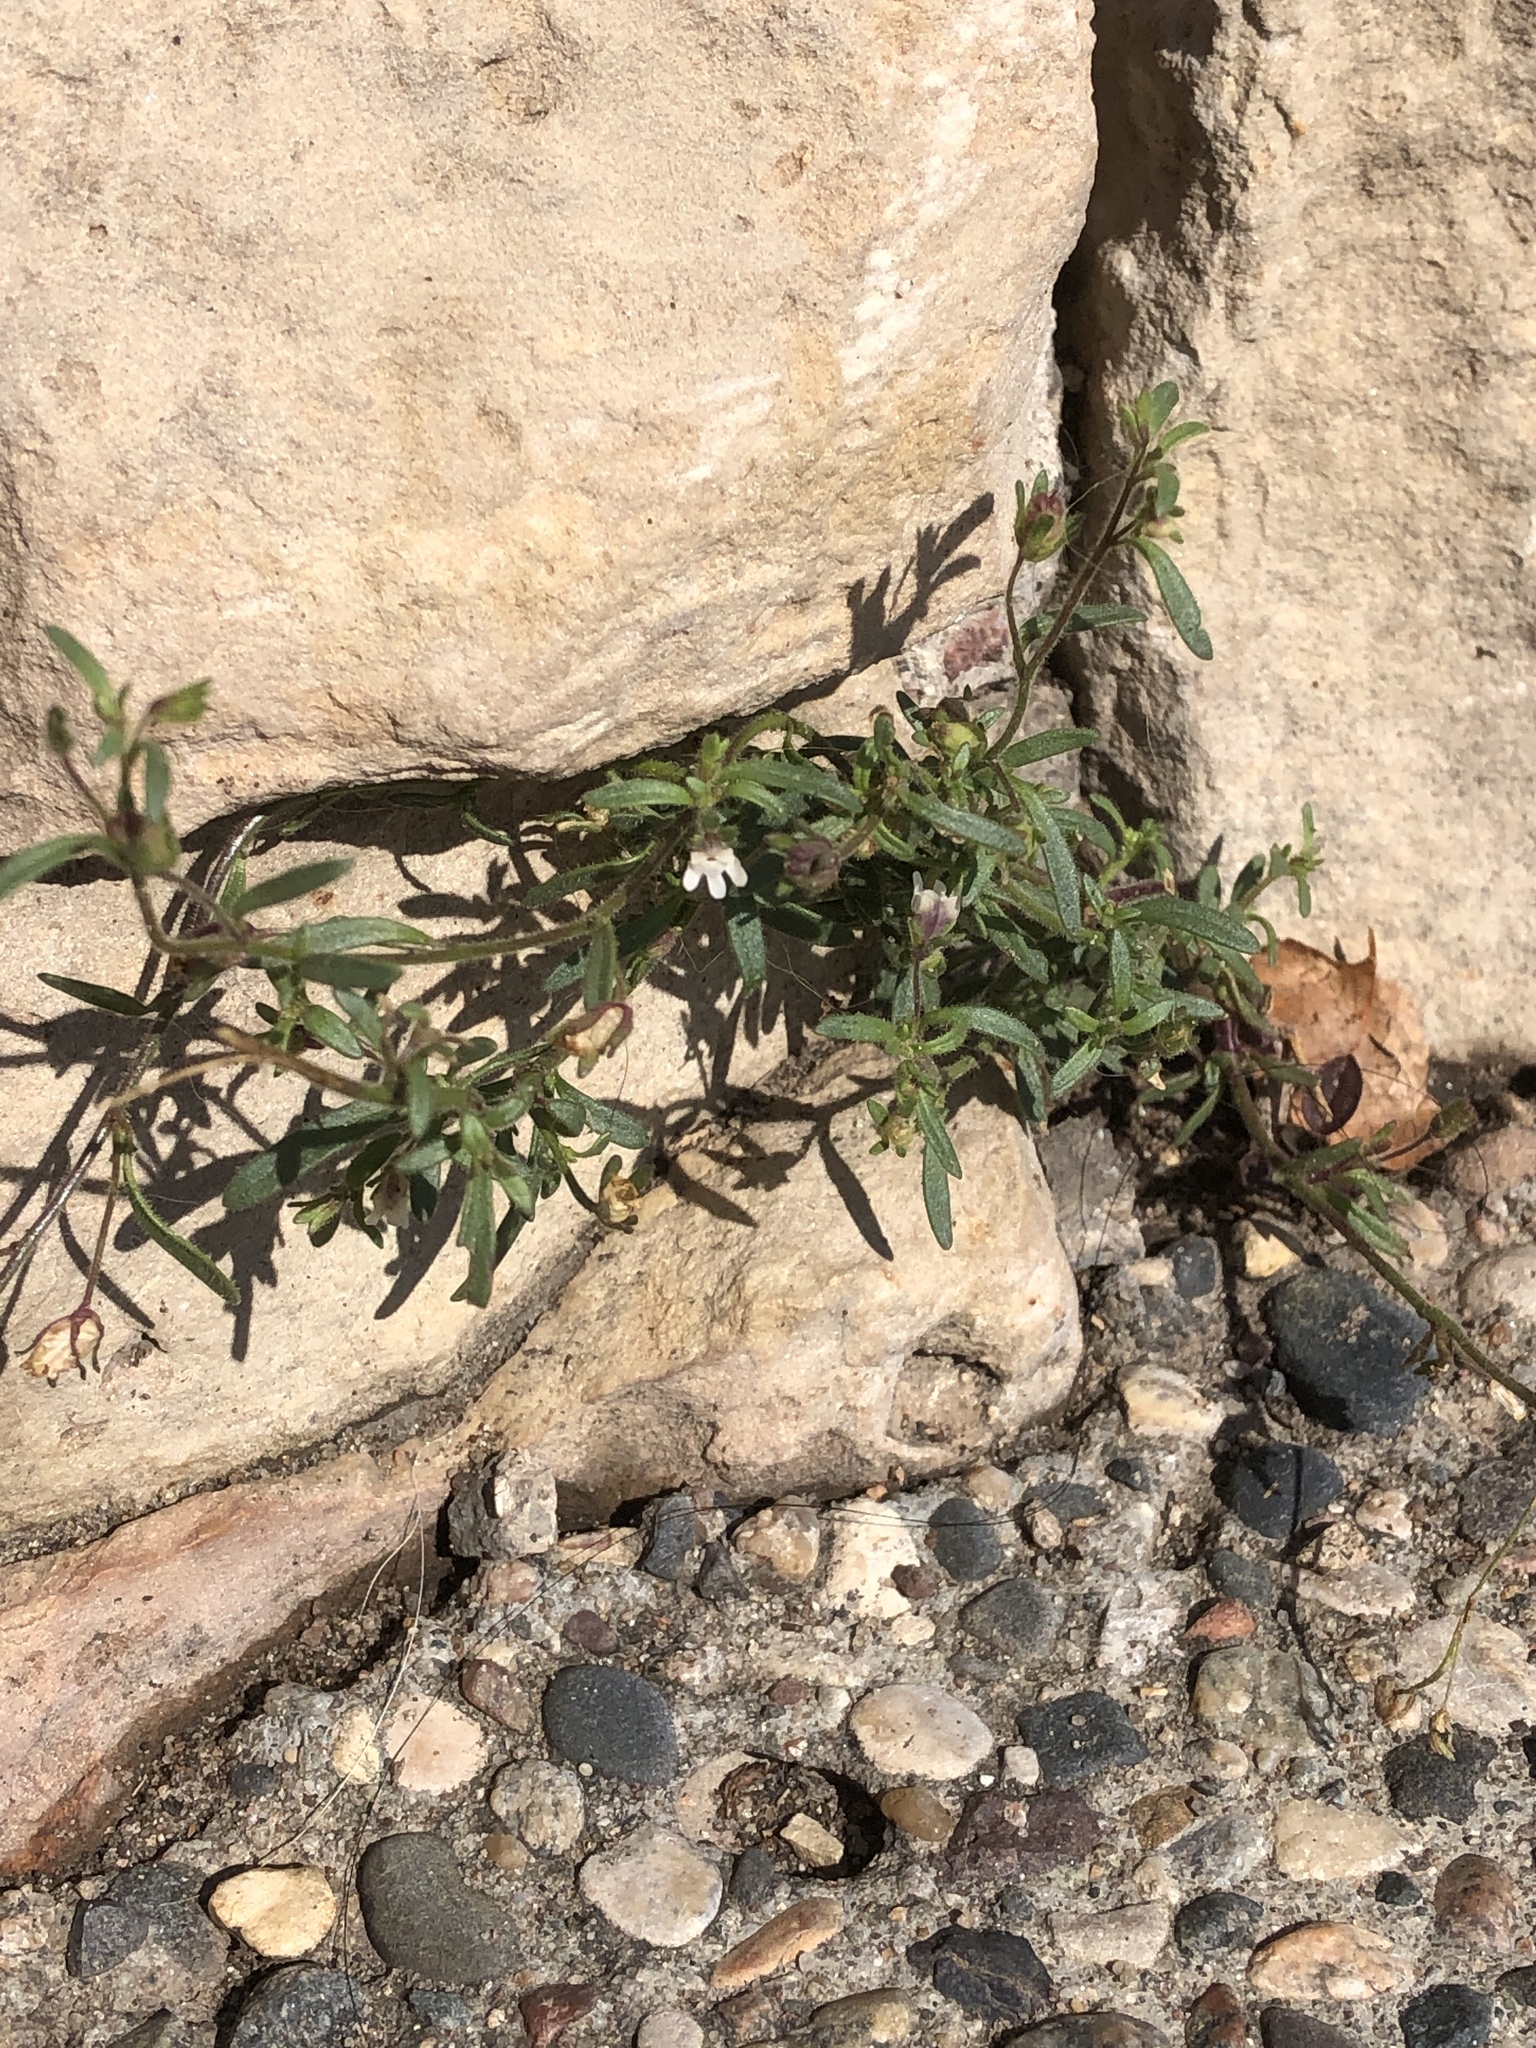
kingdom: Plantae
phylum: Tracheophyta
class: Magnoliopsida
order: Lamiales
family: Plantaginaceae
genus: Chaenorhinum
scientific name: Chaenorhinum minus
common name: Dwarf snapdragon
